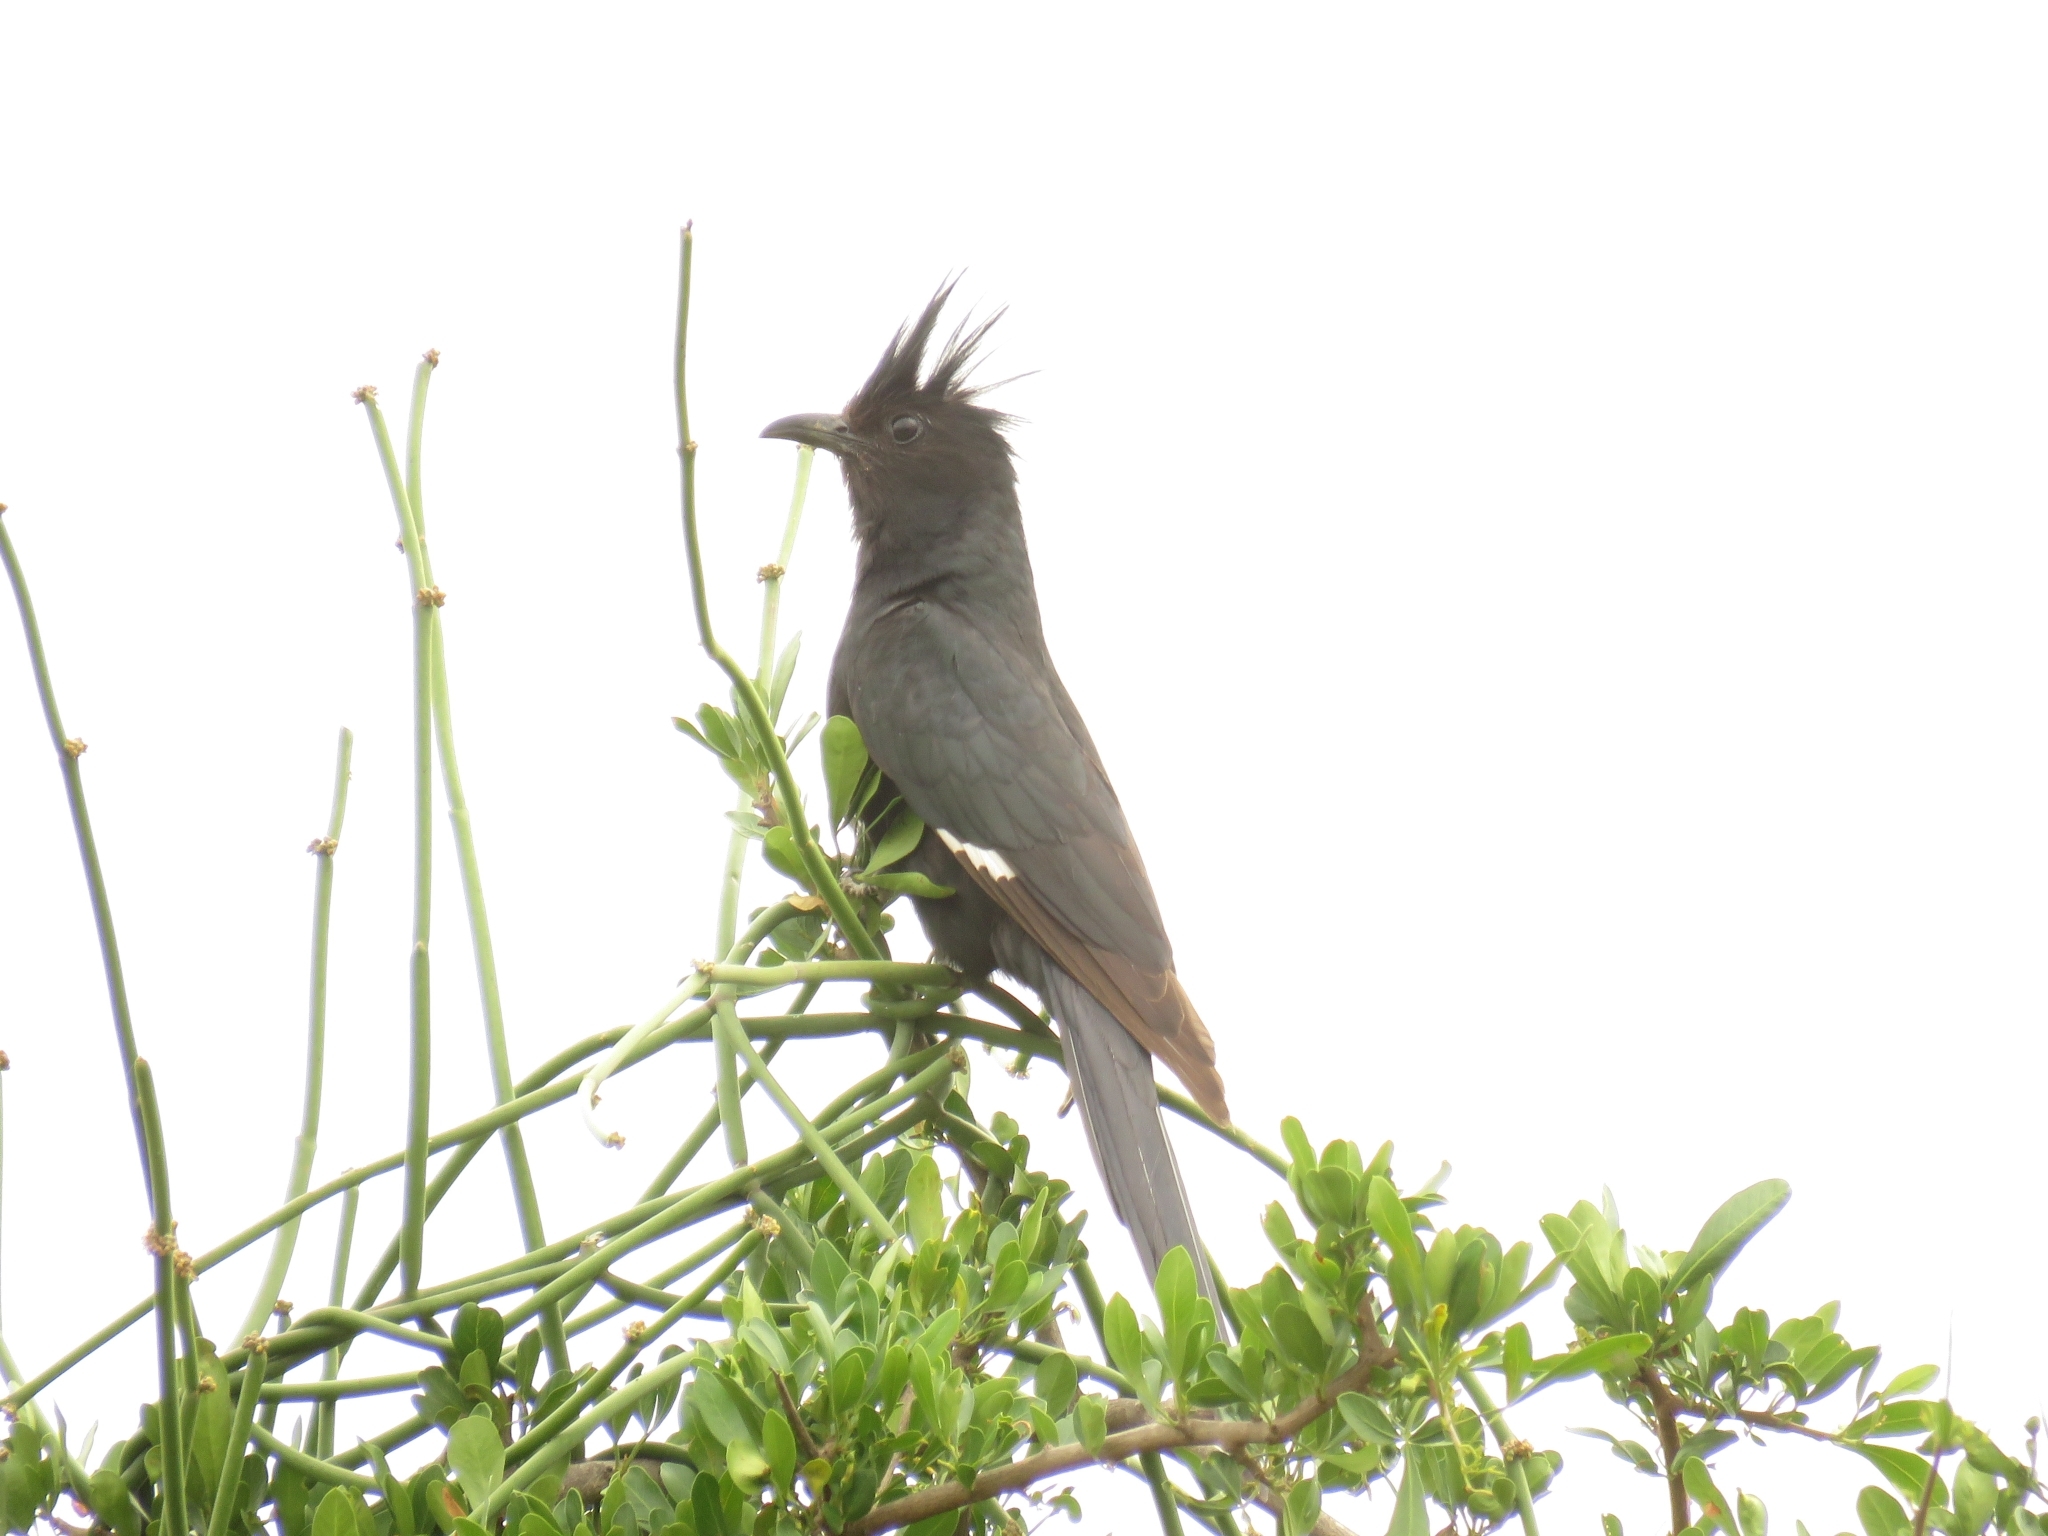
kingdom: Animalia
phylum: Chordata
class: Aves
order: Cuculiformes
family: Cuculidae
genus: Clamator
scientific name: Clamator jacobinus
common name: Jacobin cuckoo
